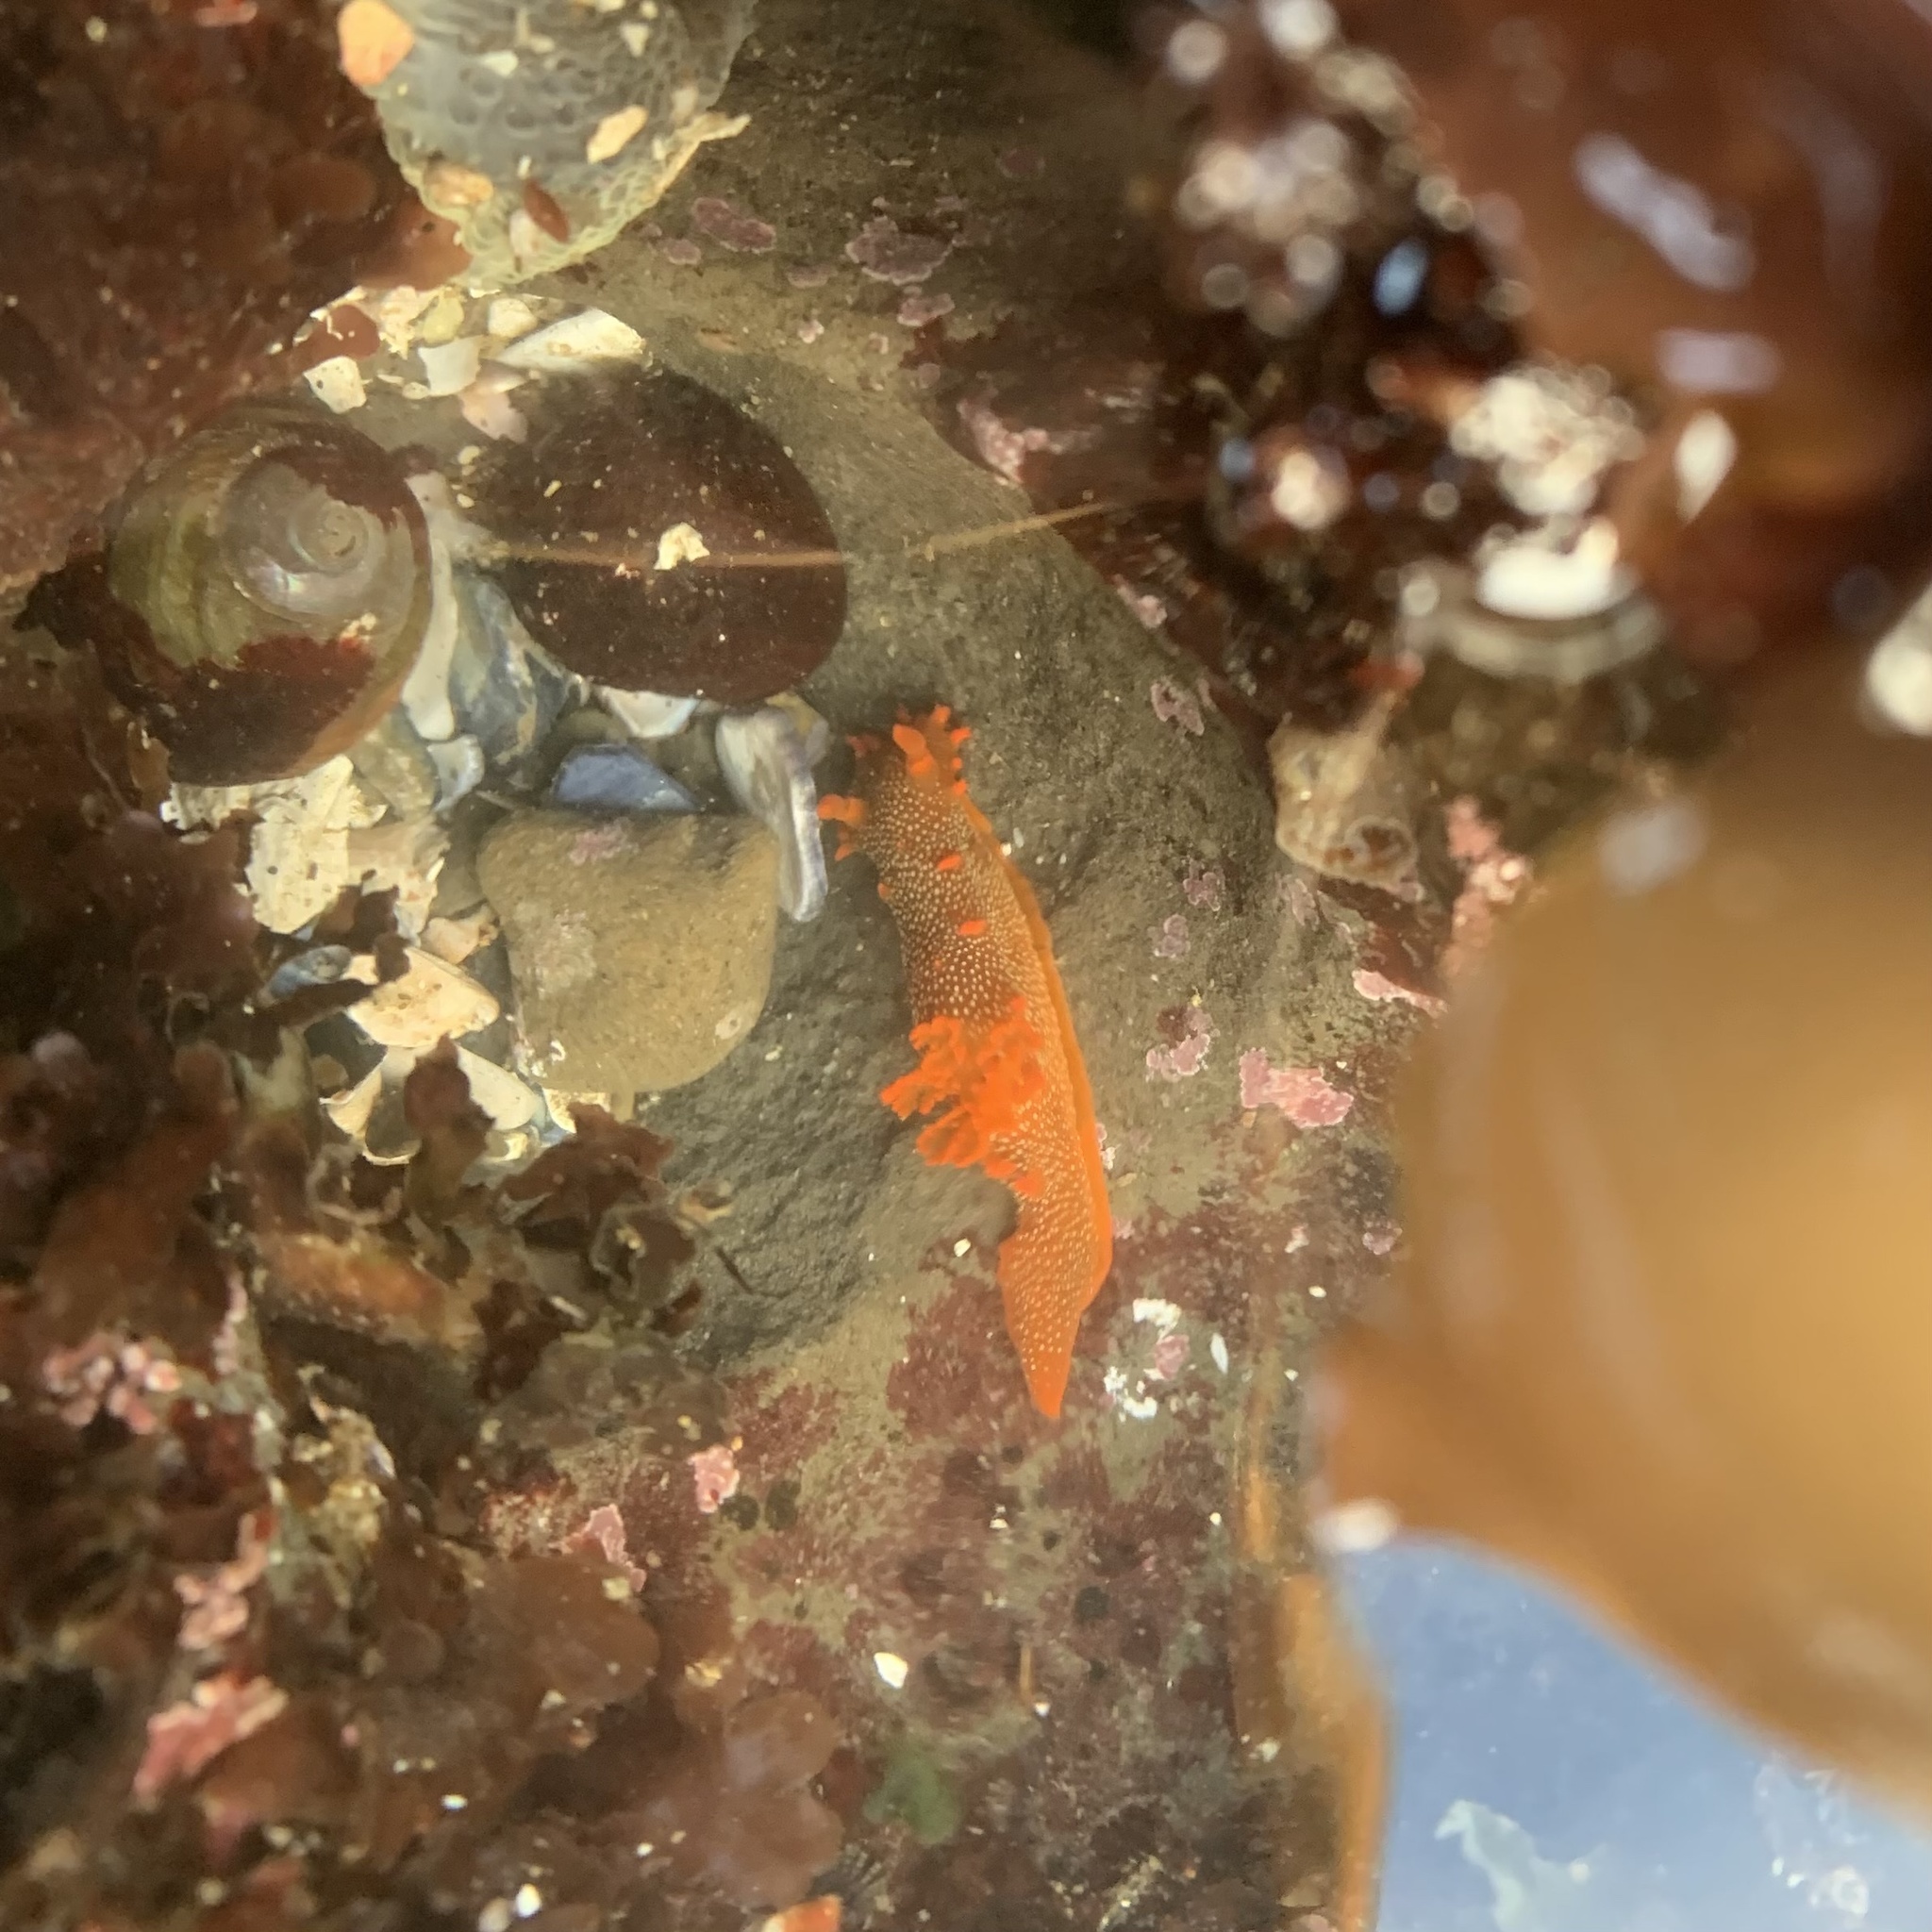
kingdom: Animalia
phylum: Mollusca
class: Gastropoda
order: Nudibranchia
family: Polyceridae
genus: Triopha
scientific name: Triopha maculata
